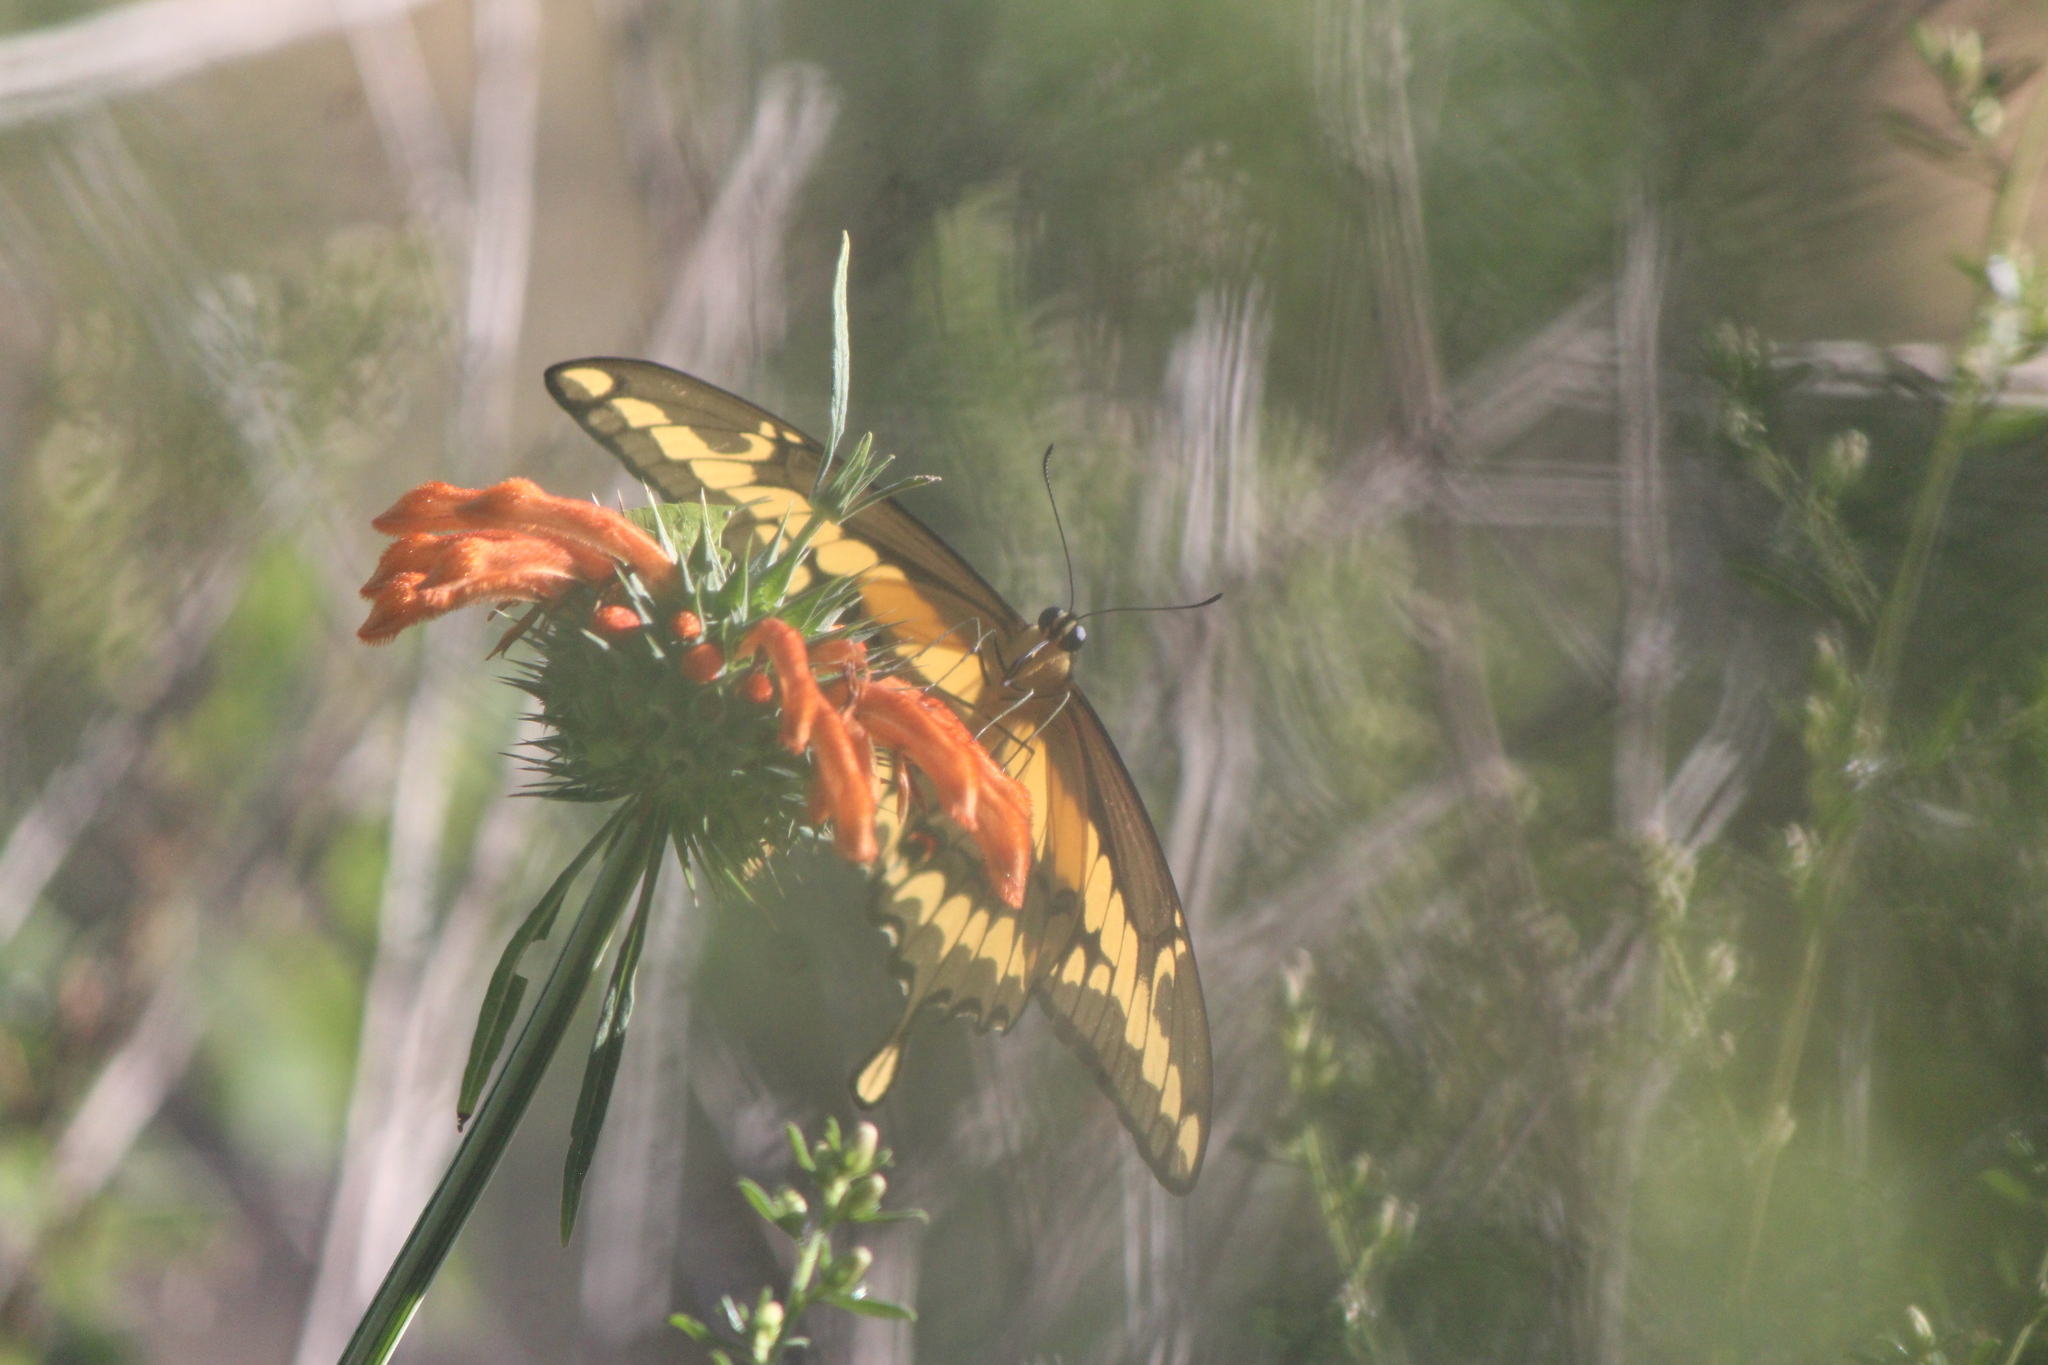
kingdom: Animalia
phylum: Arthropoda
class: Insecta
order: Lepidoptera
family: Papilionidae
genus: Papilio
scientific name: Papilio rumiko
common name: Western giant swallowtail
